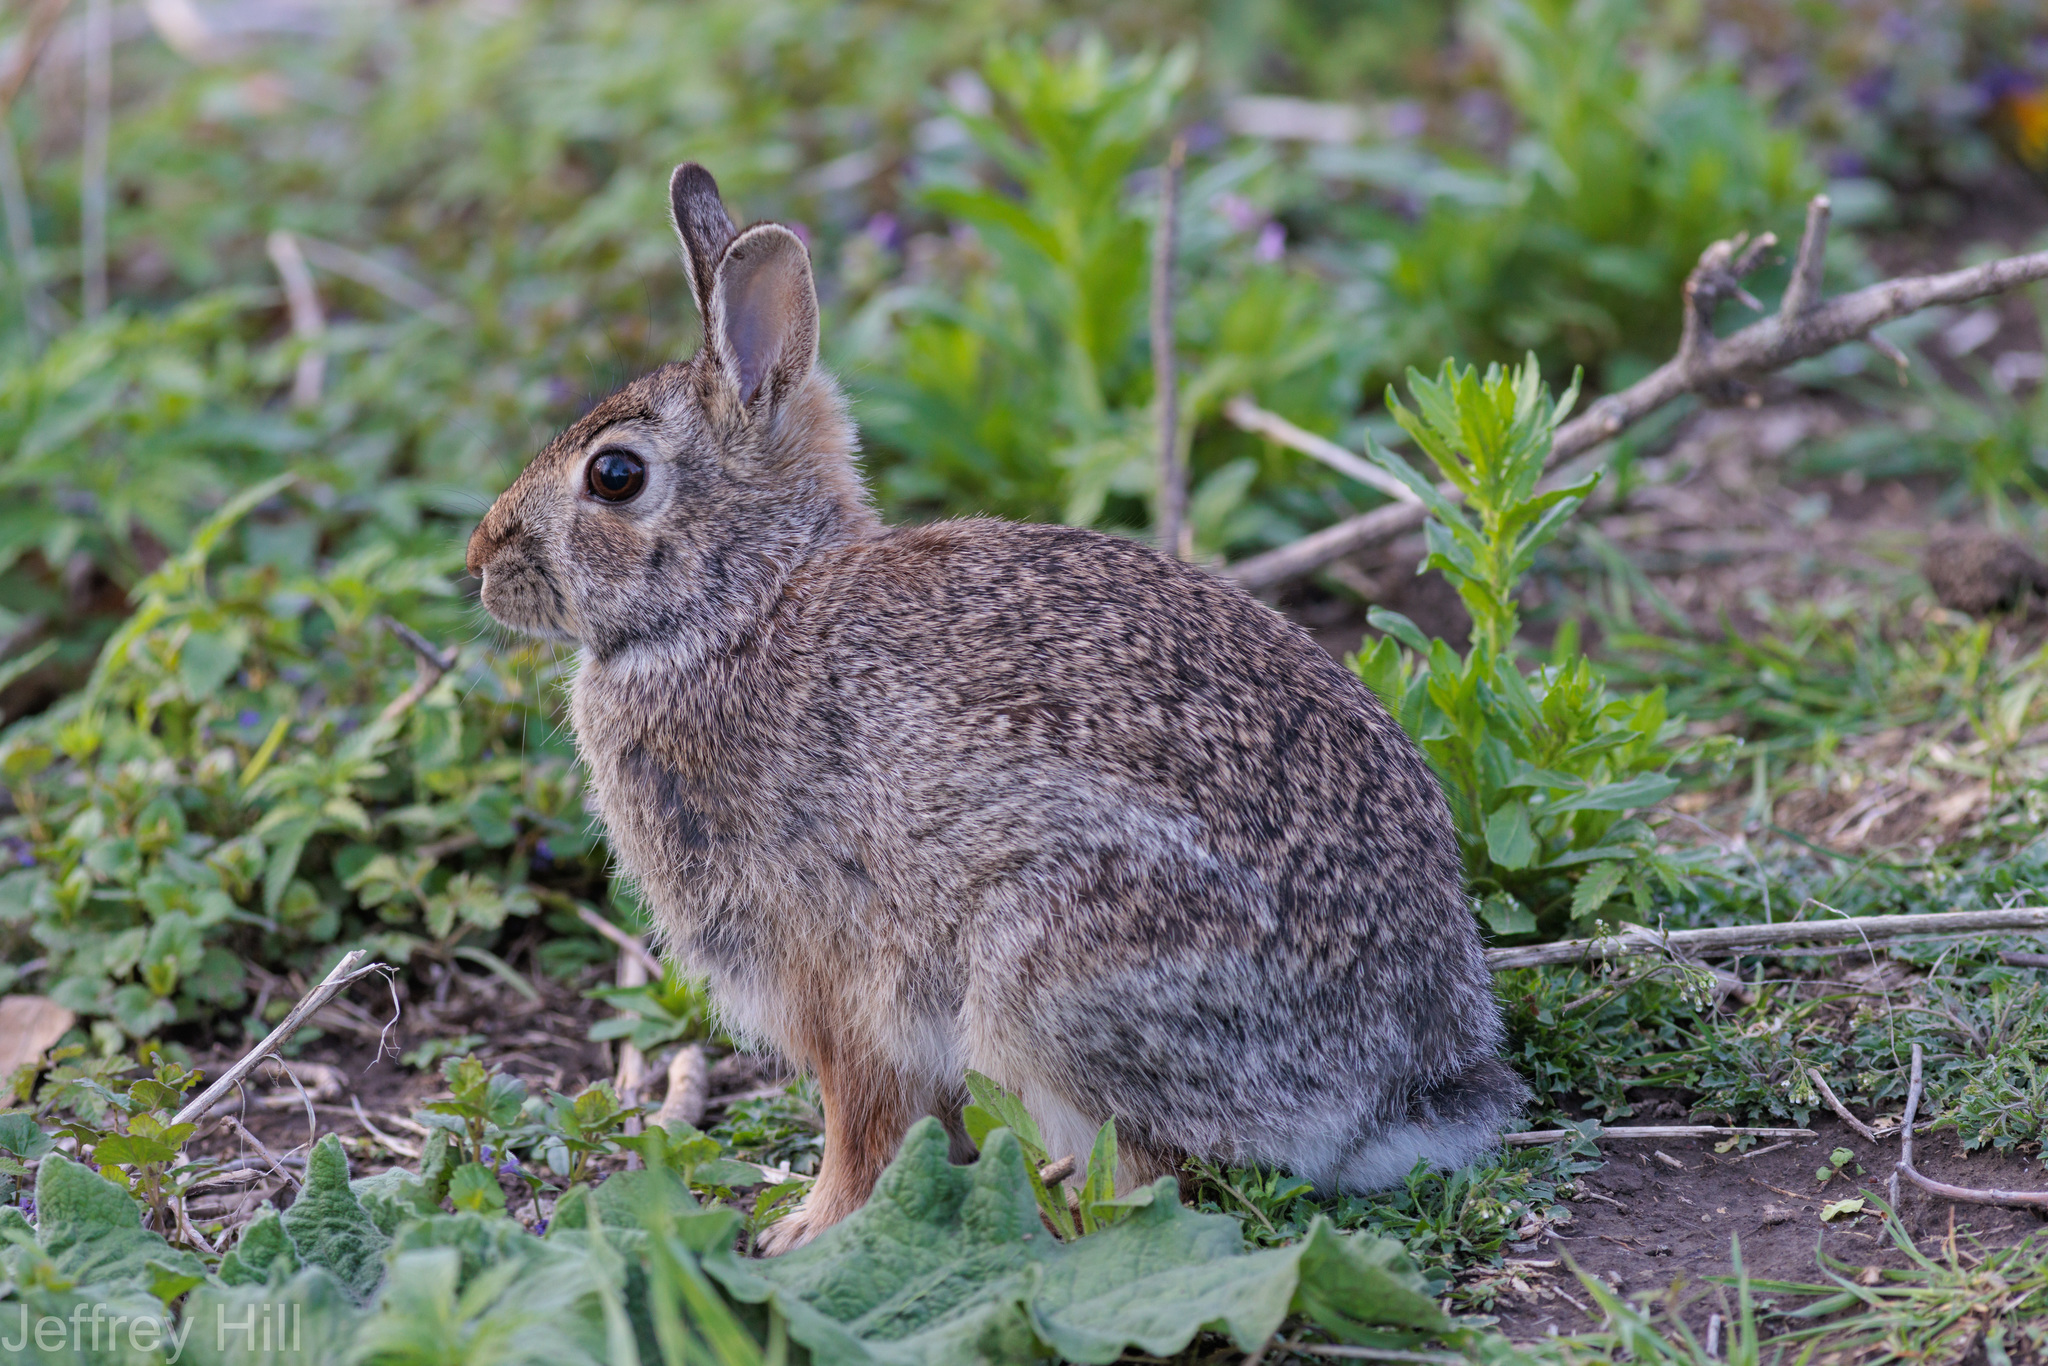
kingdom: Animalia
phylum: Chordata
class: Mammalia
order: Lagomorpha
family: Leporidae
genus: Sylvilagus
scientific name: Sylvilagus floridanus
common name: Eastern cottontail
